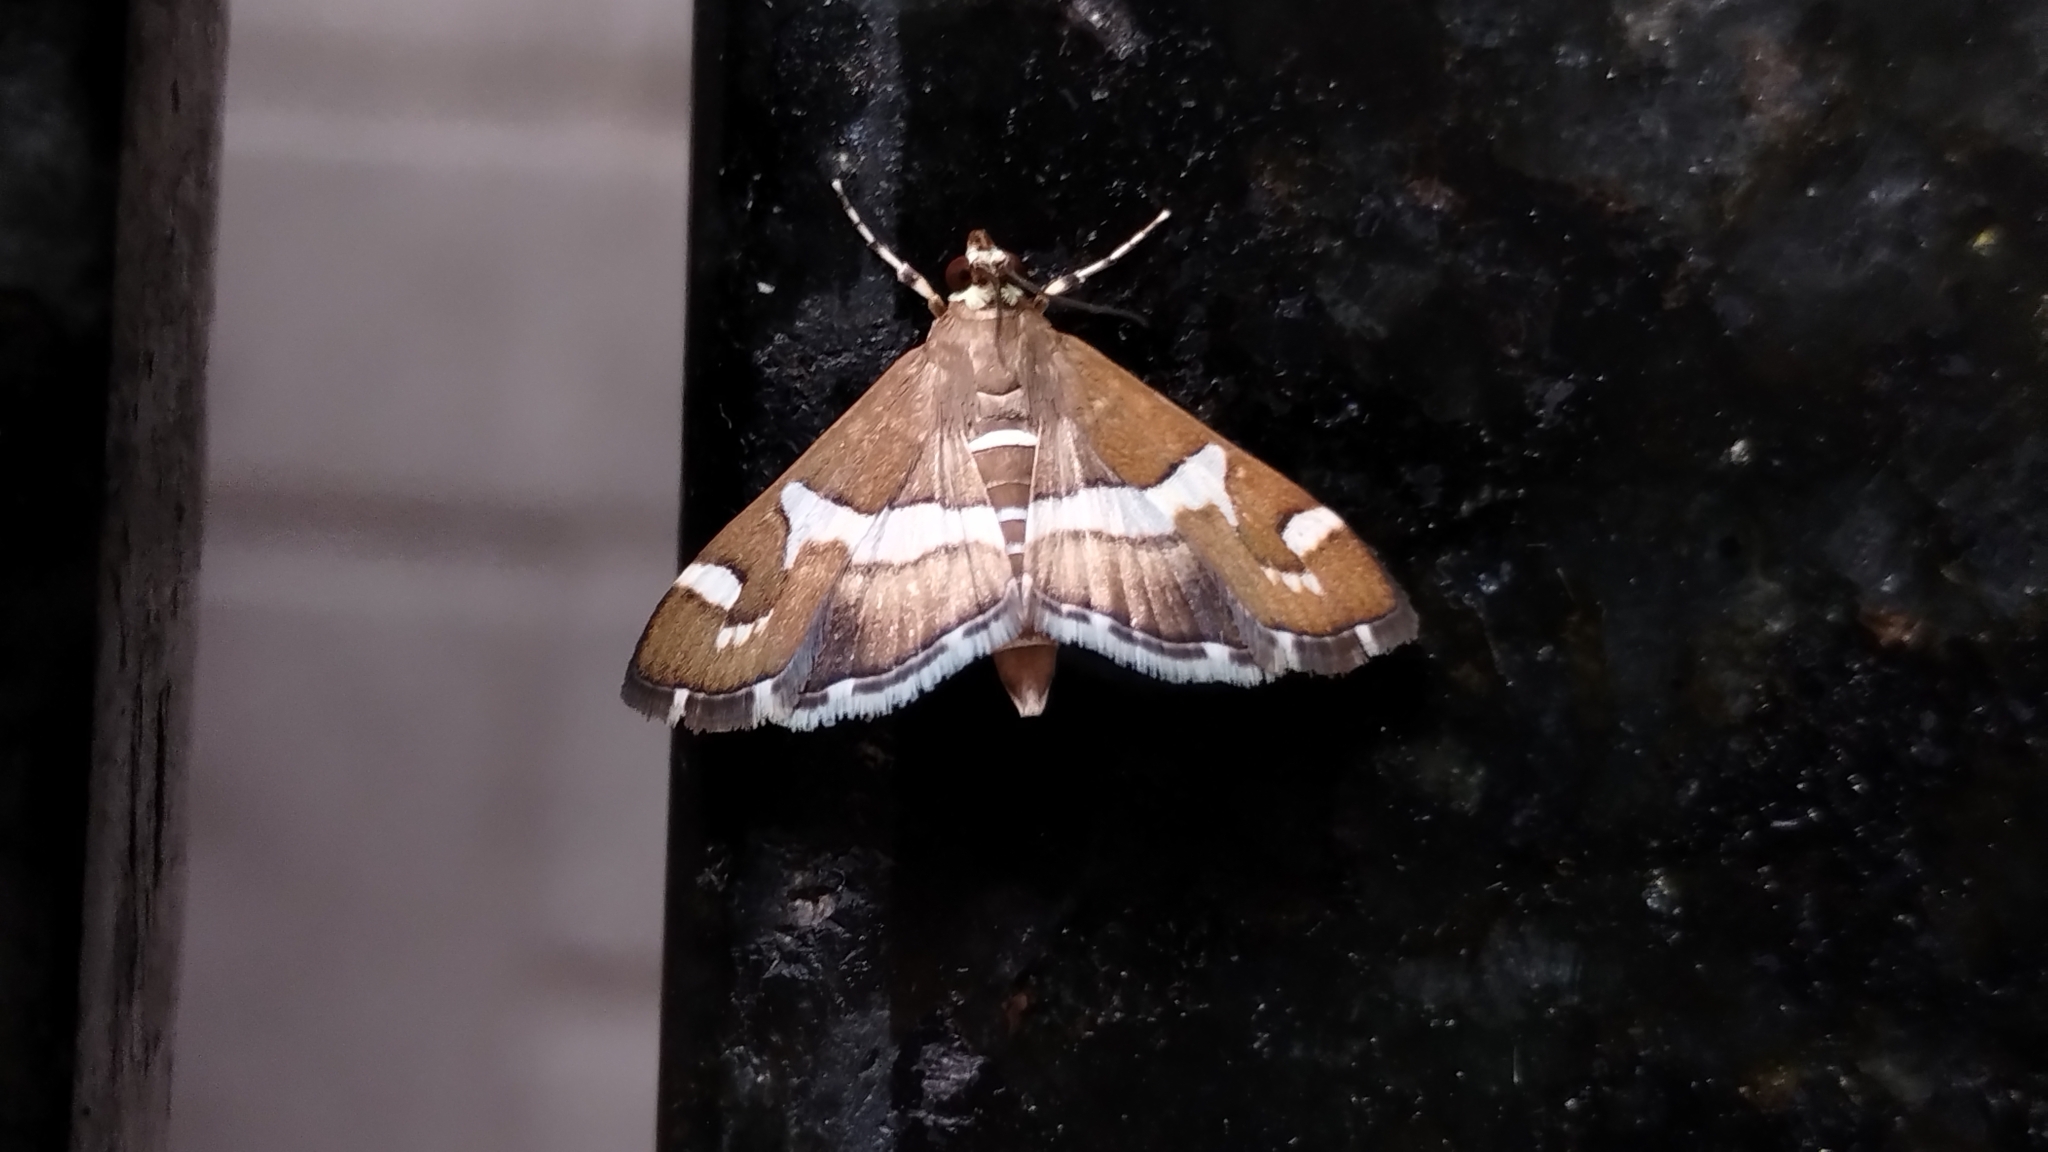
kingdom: Animalia
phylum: Arthropoda
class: Insecta
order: Lepidoptera
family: Crambidae
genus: Spoladea
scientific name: Spoladea recurvalis
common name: Beet webworm moth
